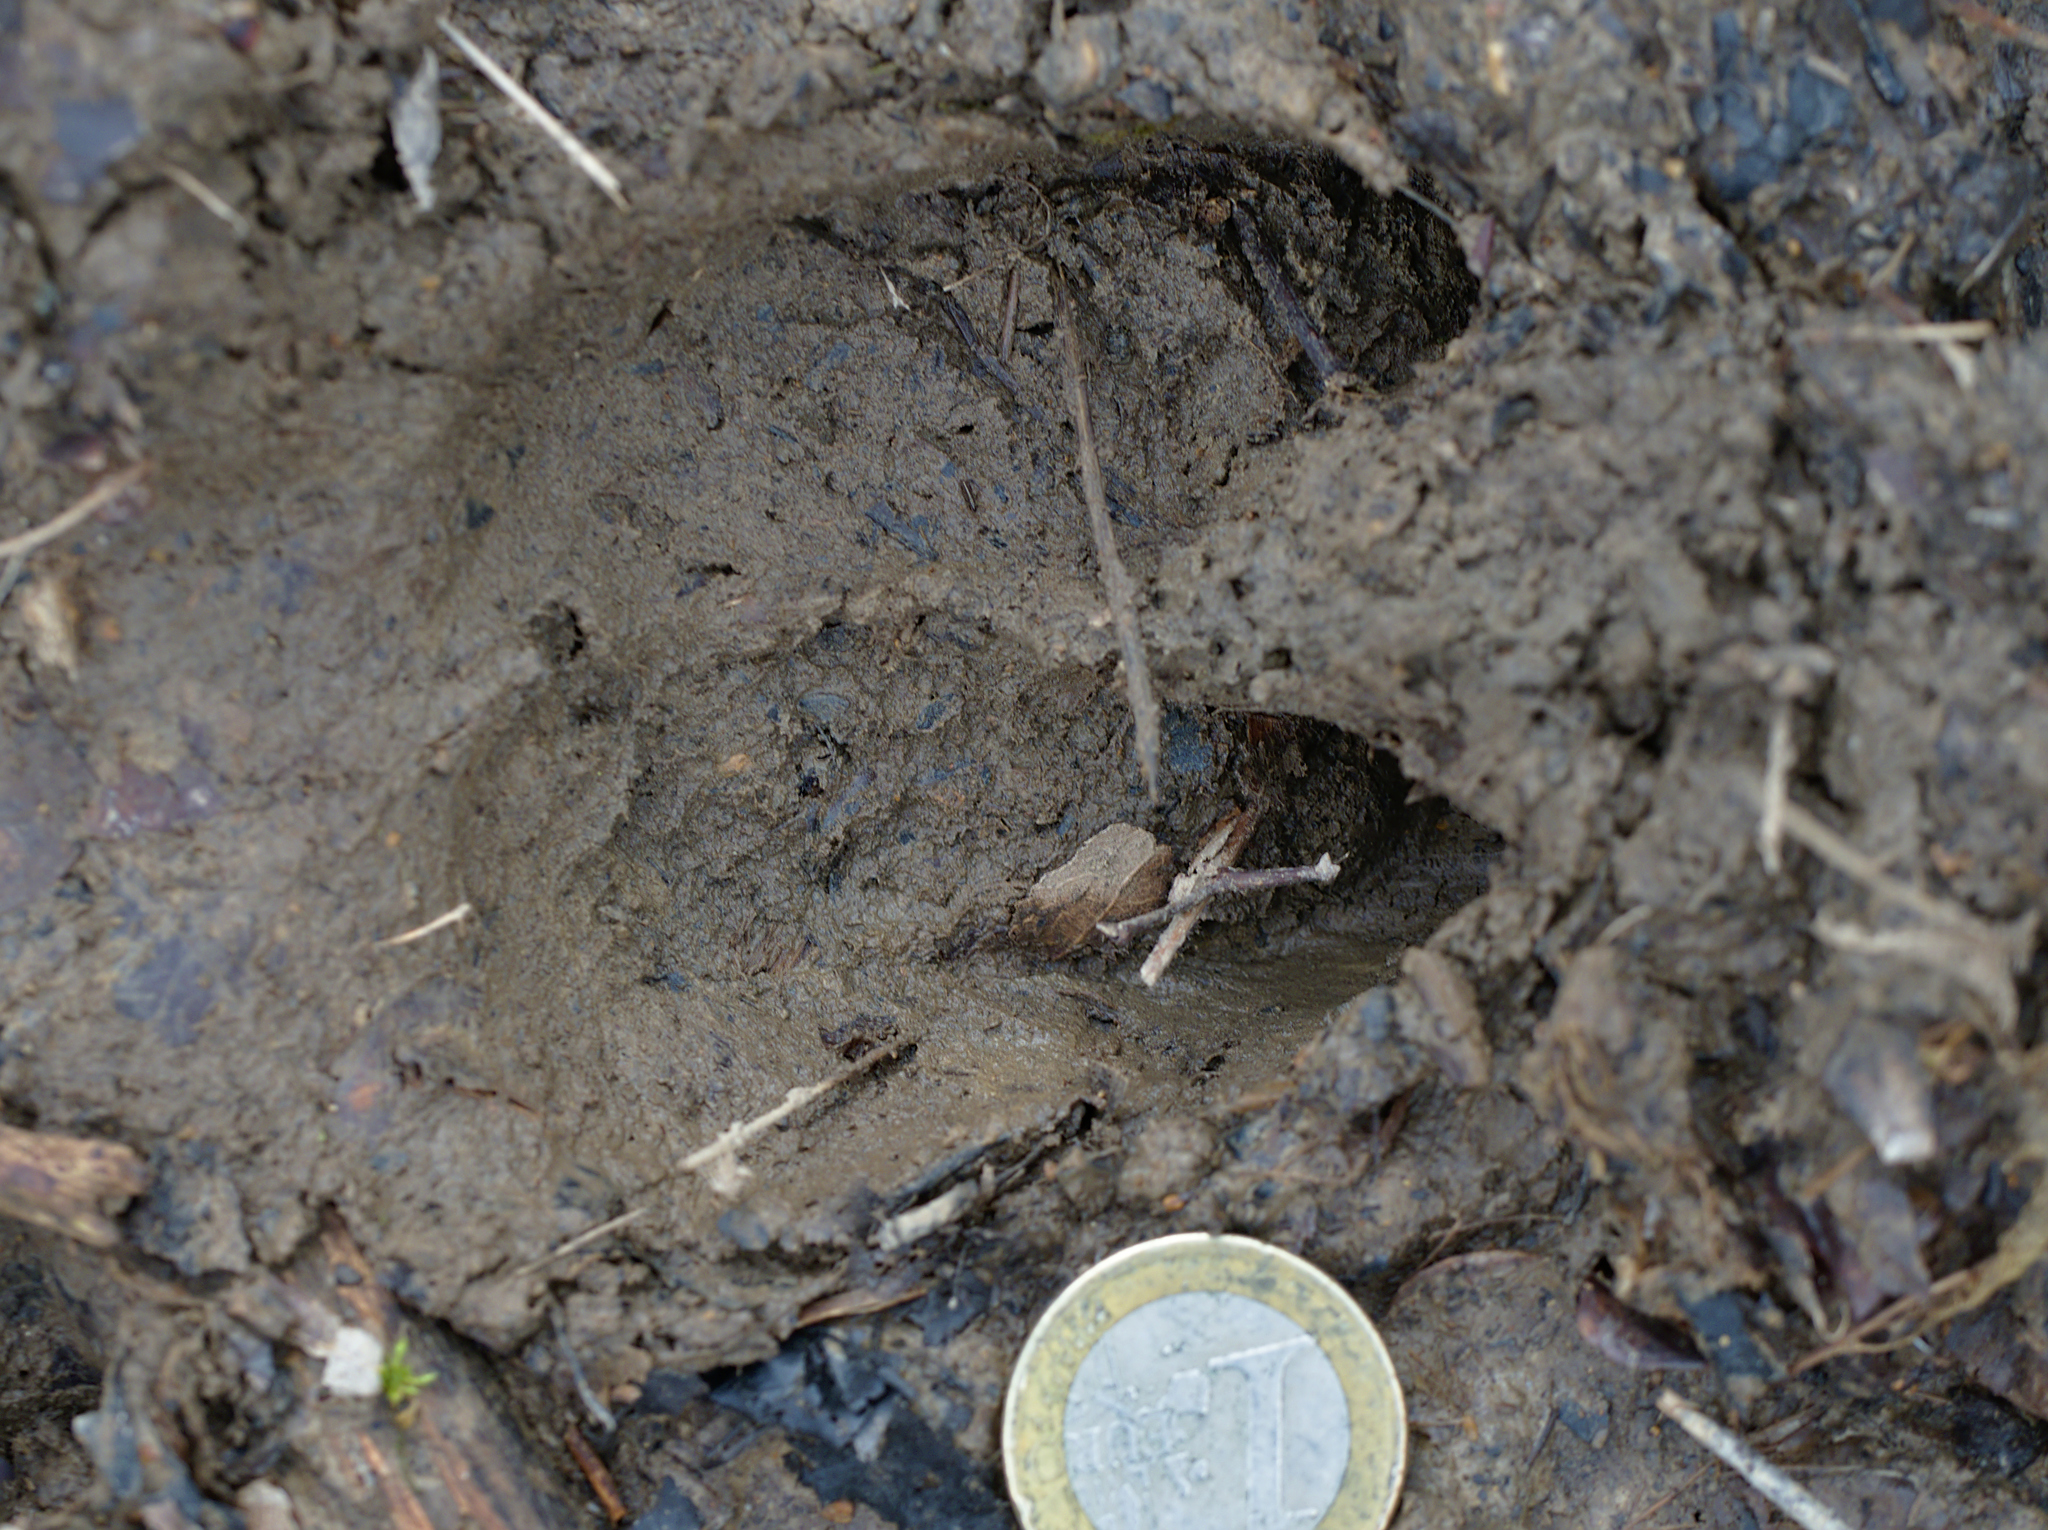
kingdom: Animalia
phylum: Chordata
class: Mammalia
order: Artiodactyla
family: Suidae
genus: Sus
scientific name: Sus scrofa
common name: Wild boar
